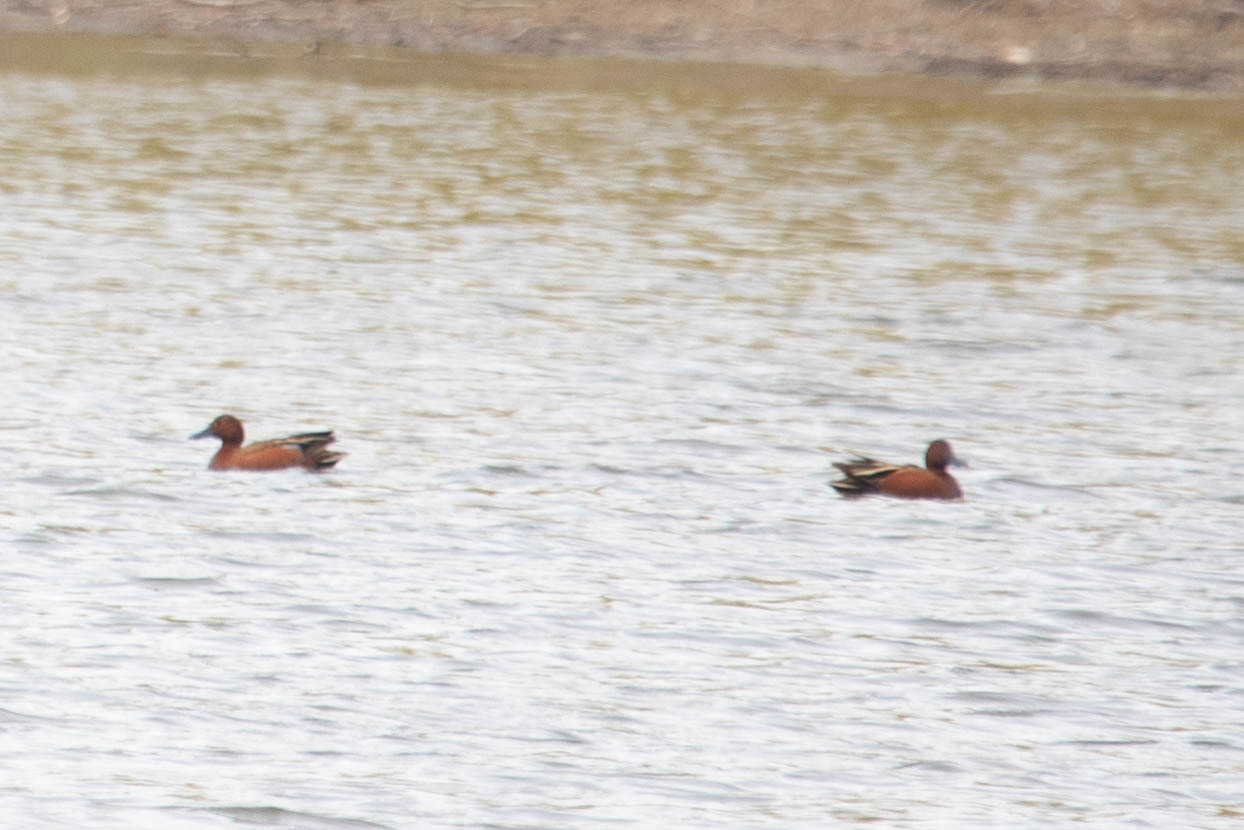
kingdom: Animalia
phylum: Chordata
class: Aves
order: Anseriformes
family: Anatidae
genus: Spatula
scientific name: Spatula cyanoptera
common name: Cinnamon teal
